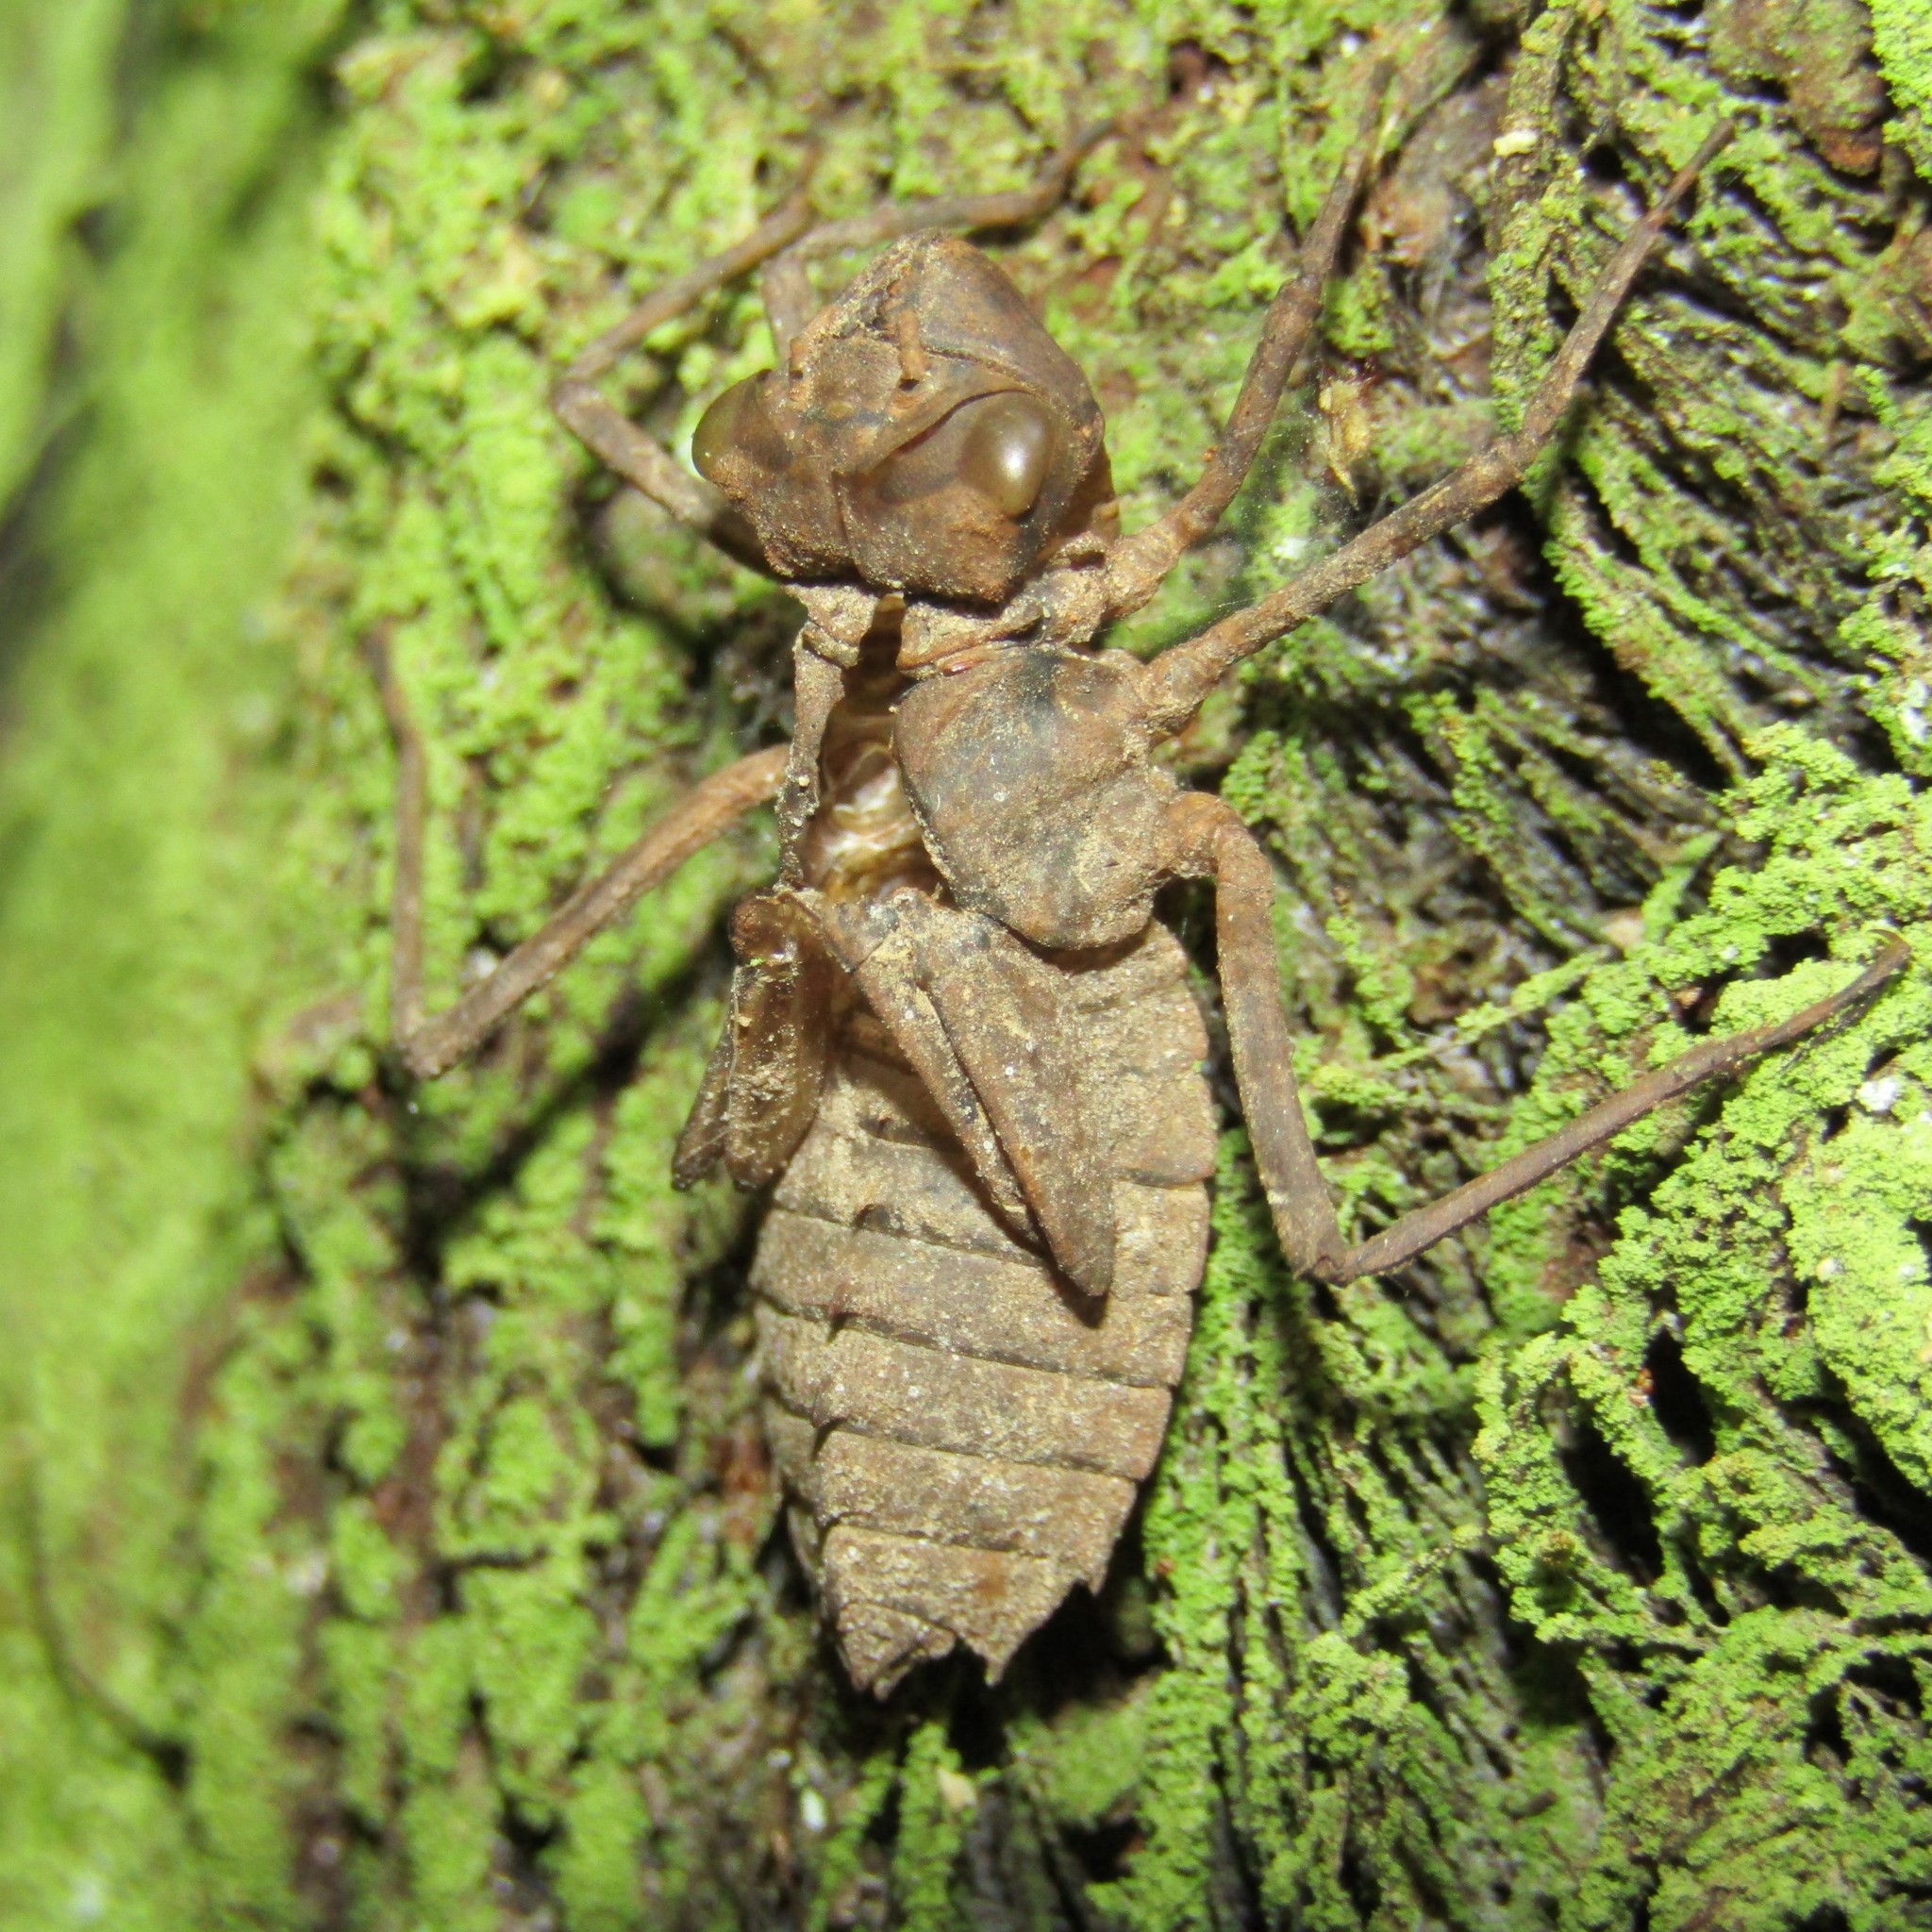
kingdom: Animalia
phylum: Arthropoda
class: Insecta
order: Odonata
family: Corduliidae
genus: Antipodochlora
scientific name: Antipodochlora braueri
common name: Dusk dragonfly
